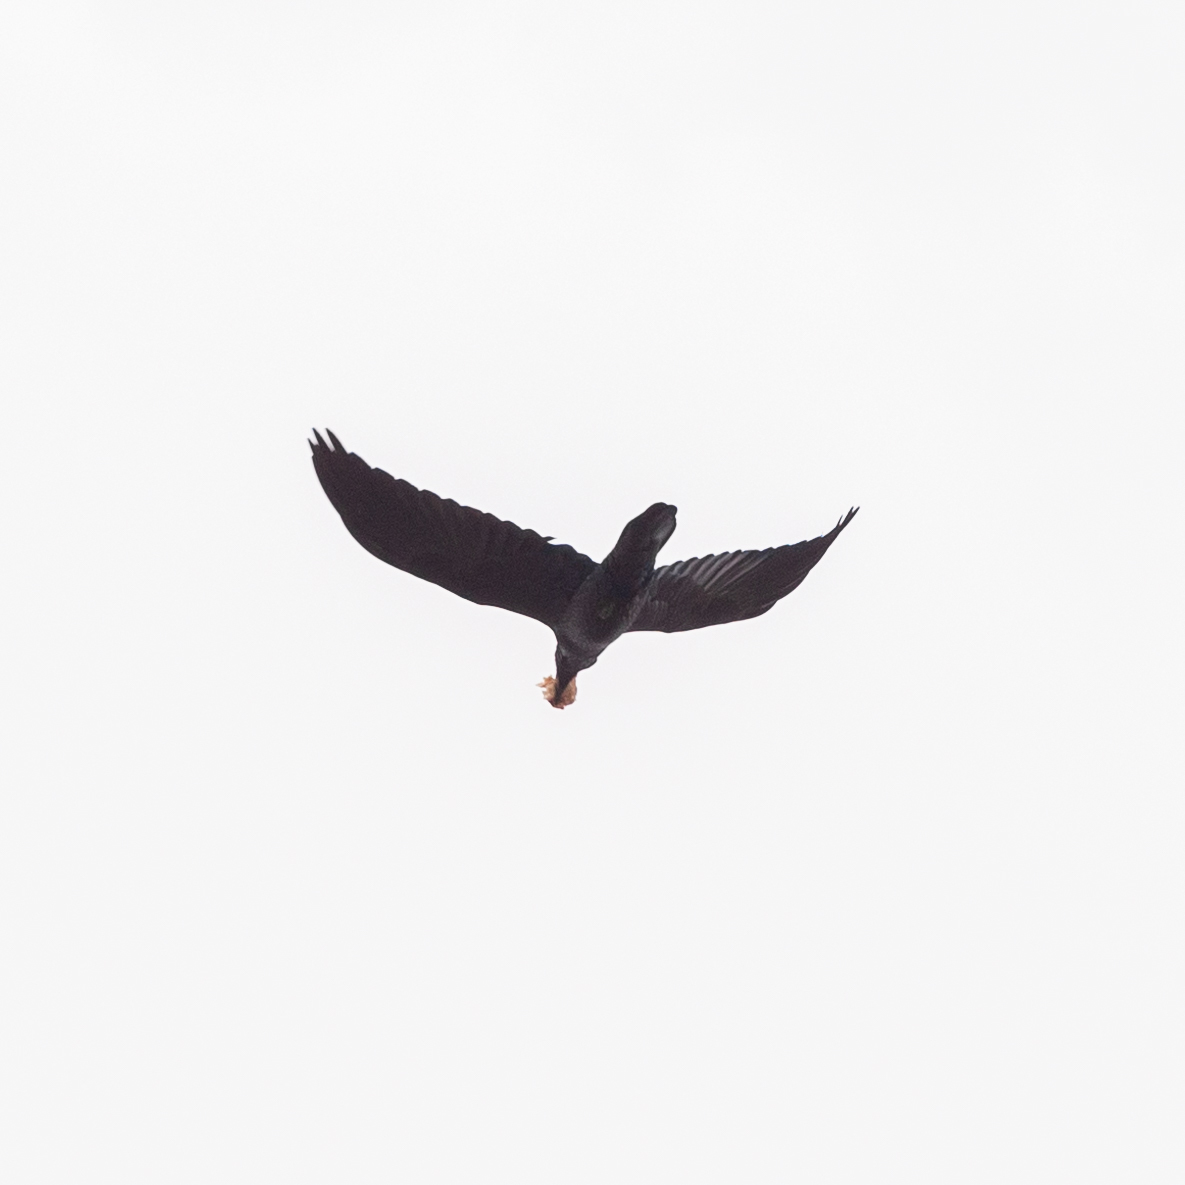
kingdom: Animalia
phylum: Chordata
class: Aves
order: Passeriformes
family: Corvidae
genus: Corvus
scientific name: Corvus corax
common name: Common raven
